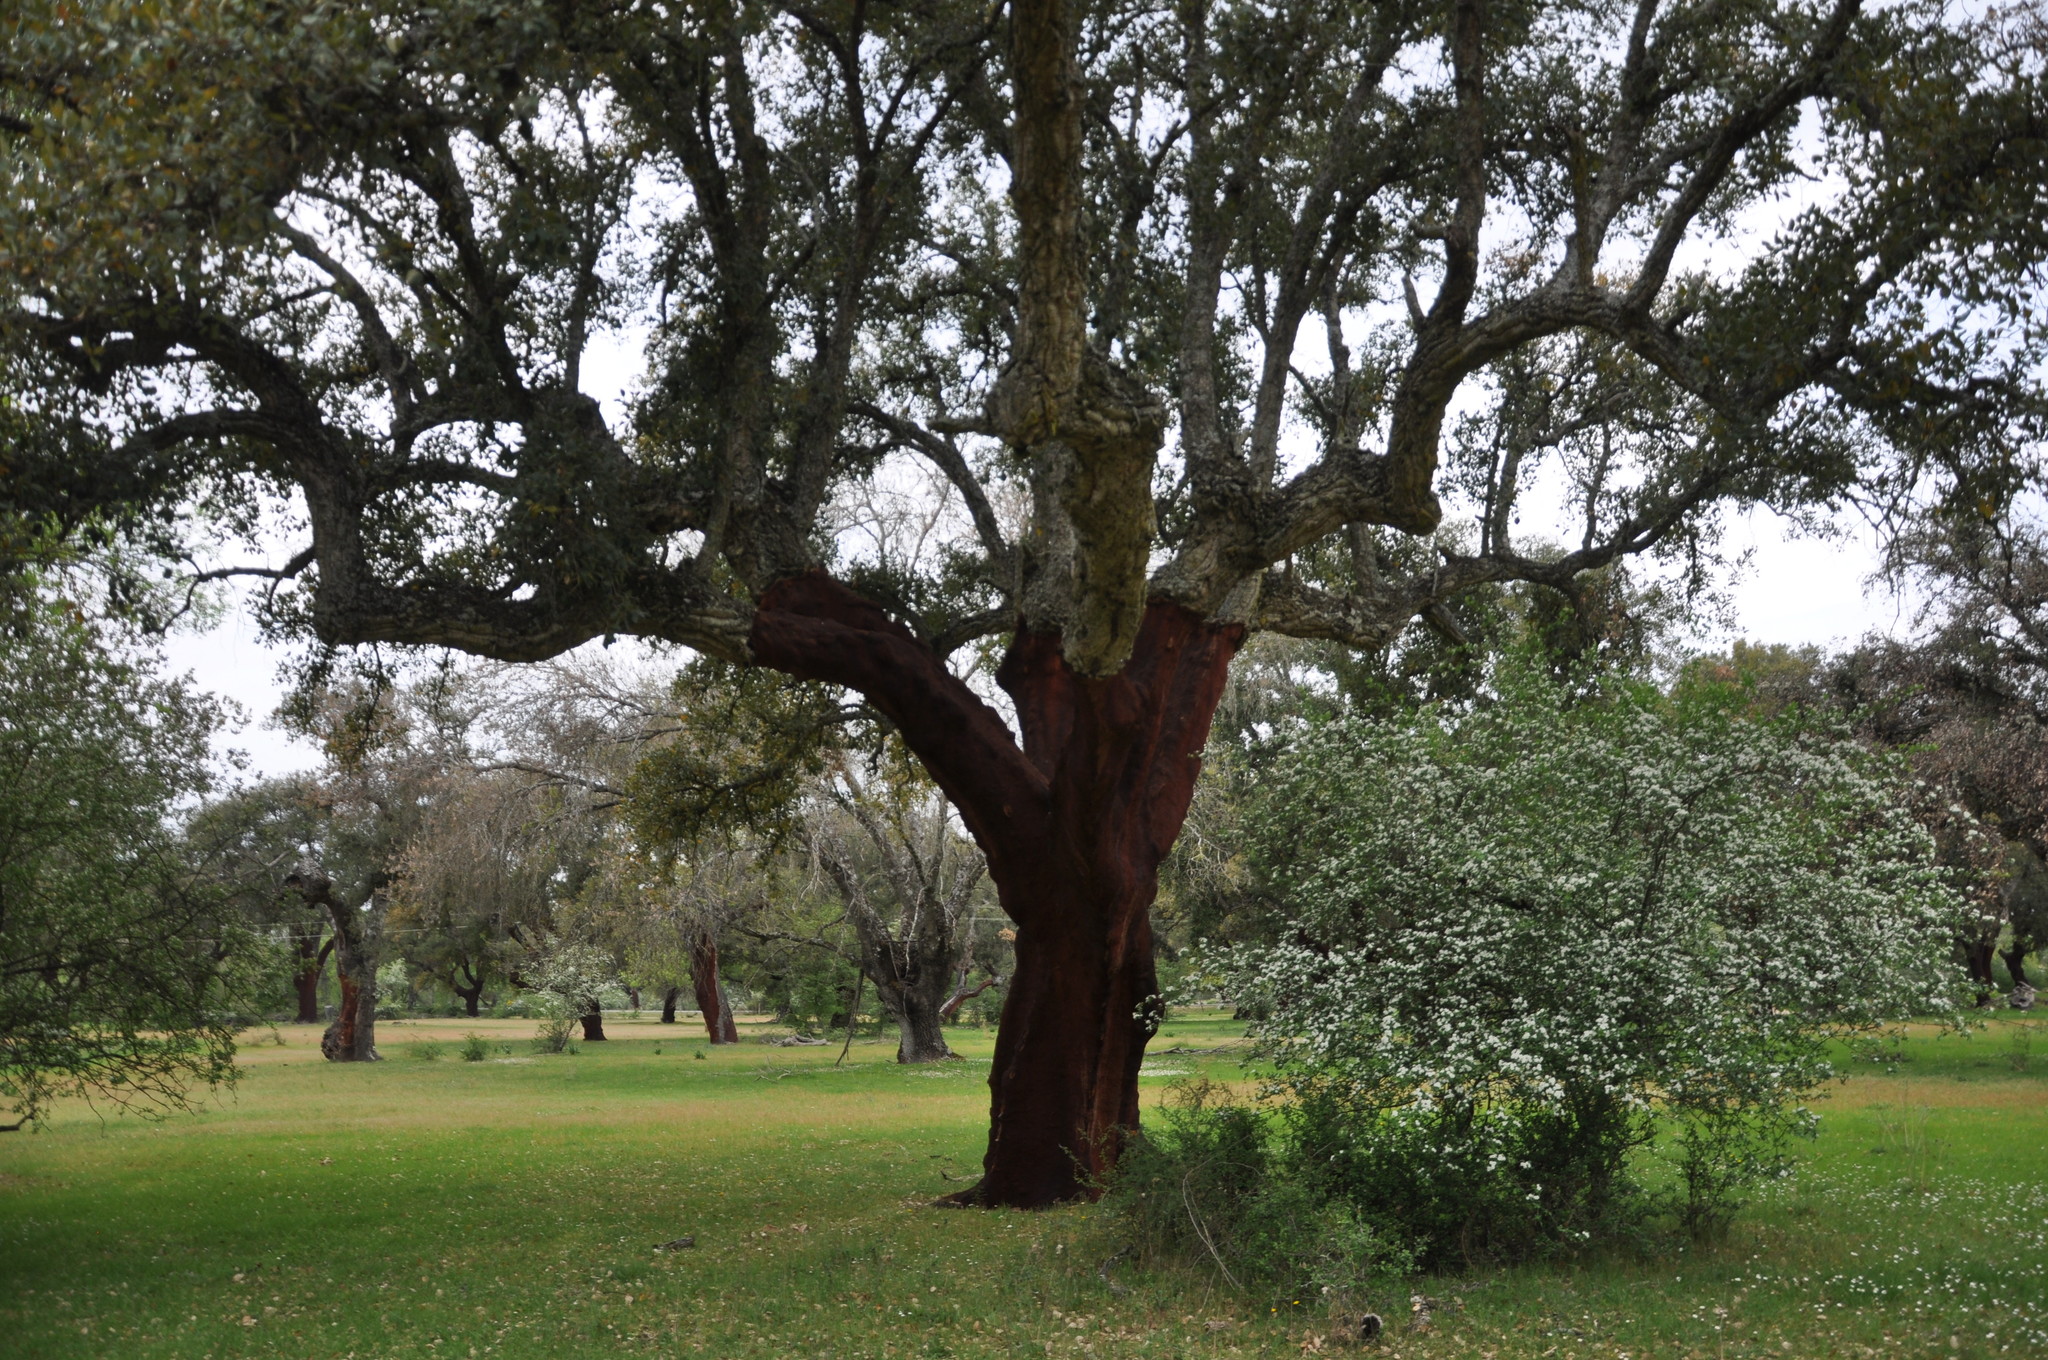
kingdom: Plantae
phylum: Tracheophyta
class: Magnoliopsida
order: Fagales
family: Fagaceae
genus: Quercus
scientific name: Quercus suber
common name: Cork oak
